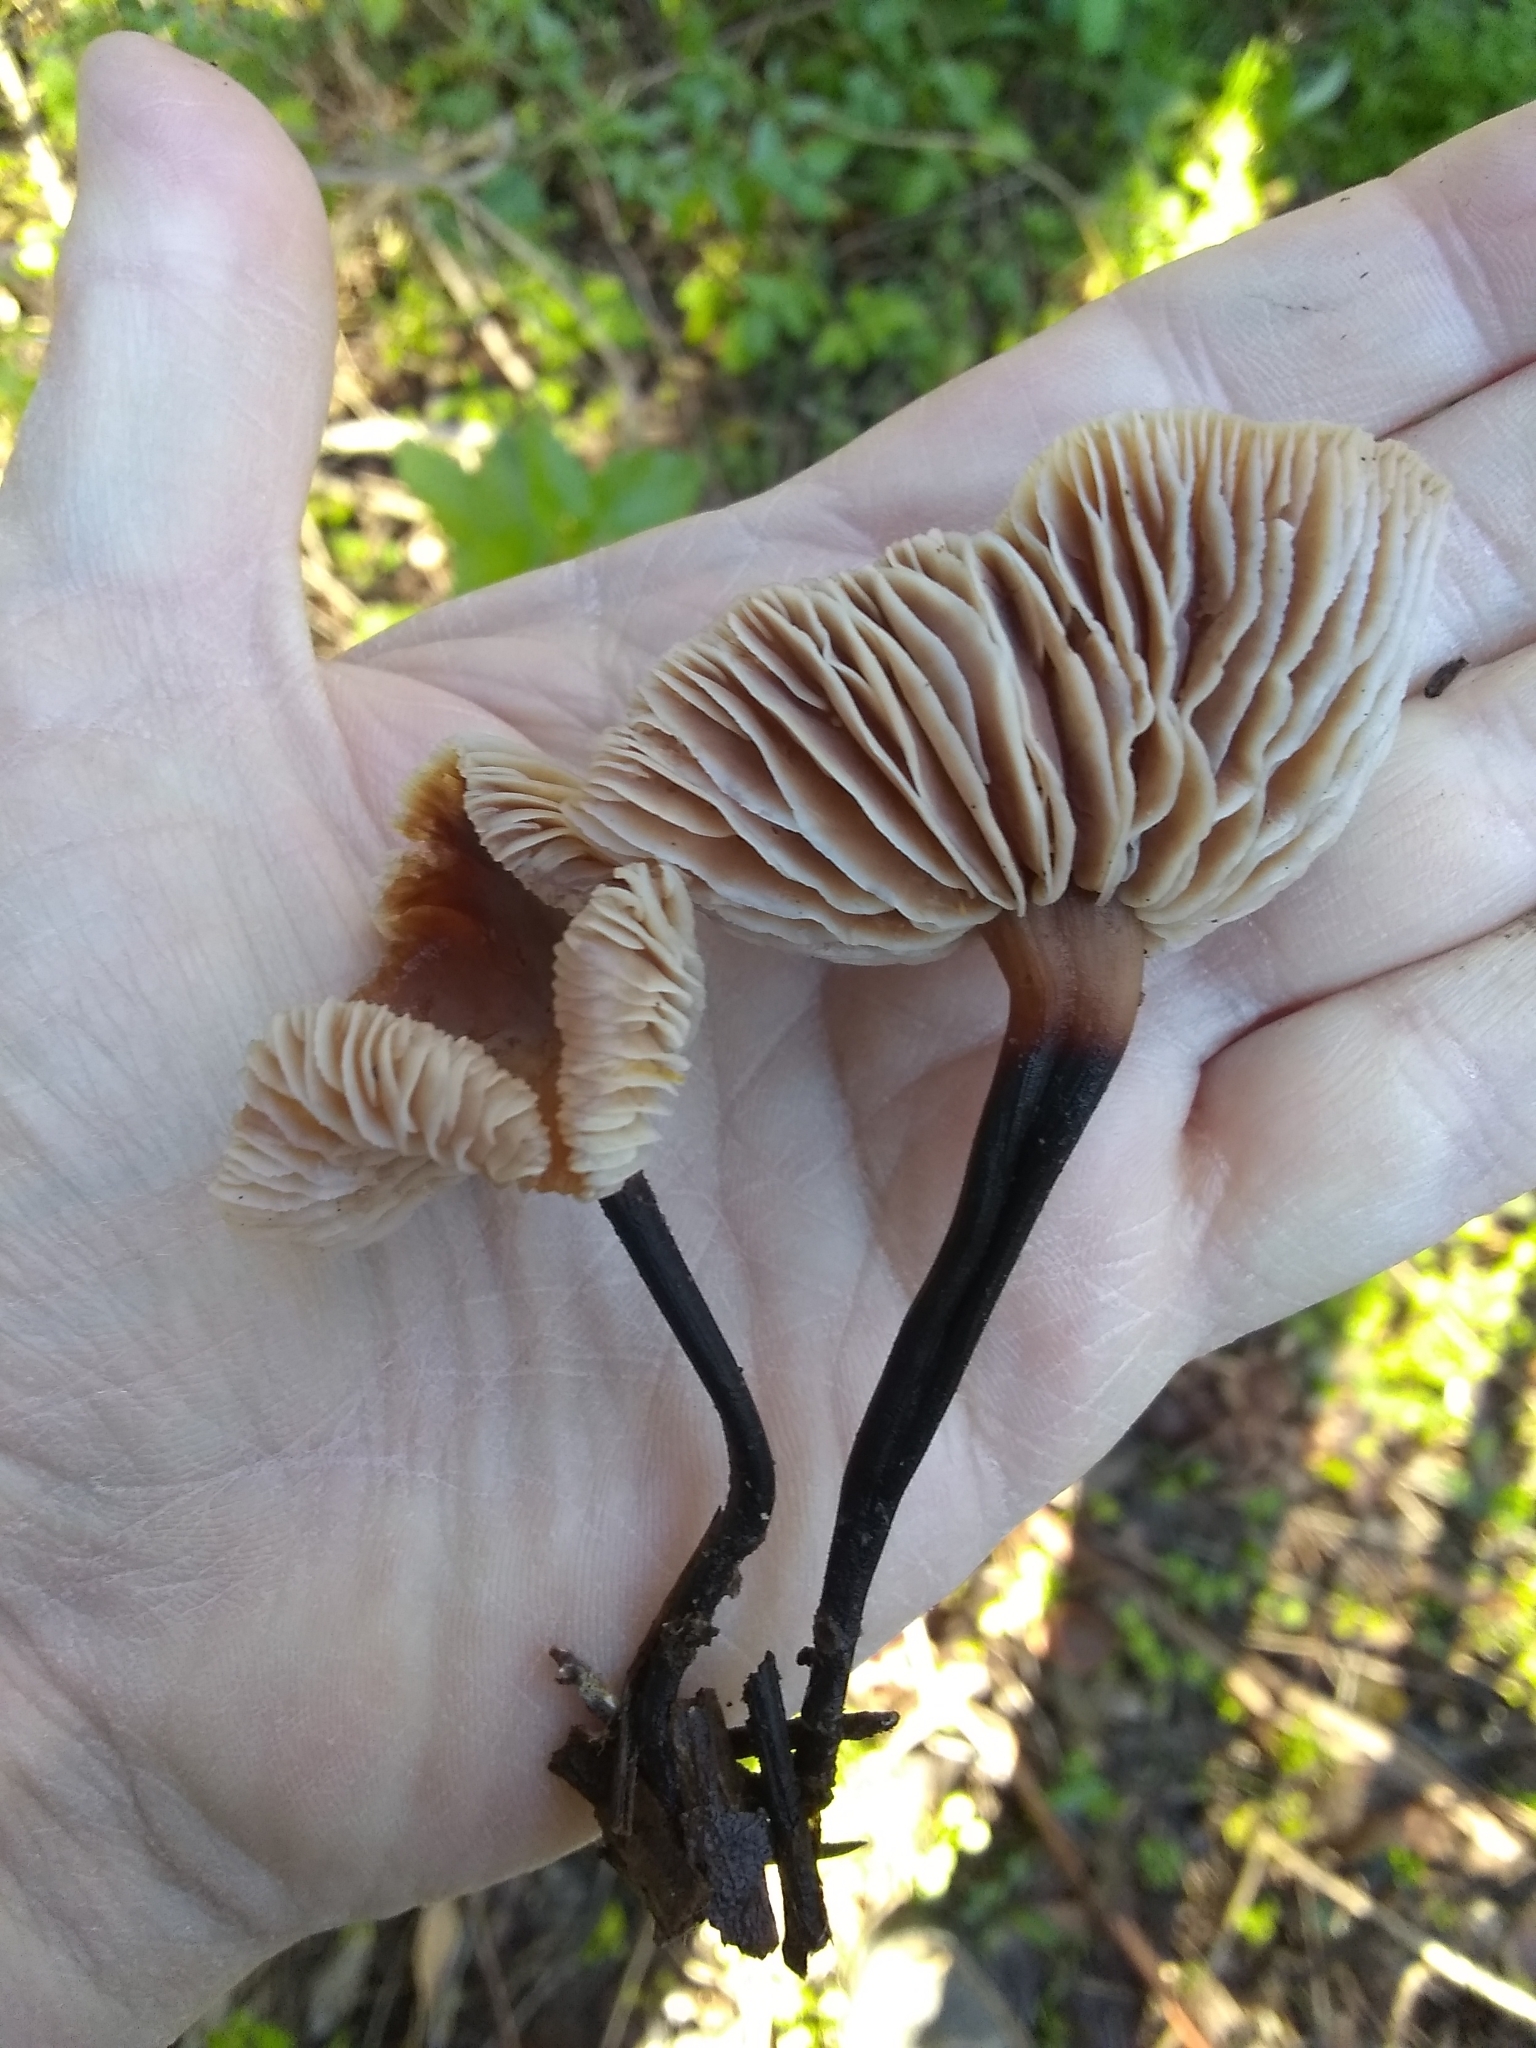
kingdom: Fungi
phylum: Basidiomycota
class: Agaricomycetes
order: Agaricales
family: Omphalotaceae
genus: Gymnopus
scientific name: Gymnopus brassicolens
